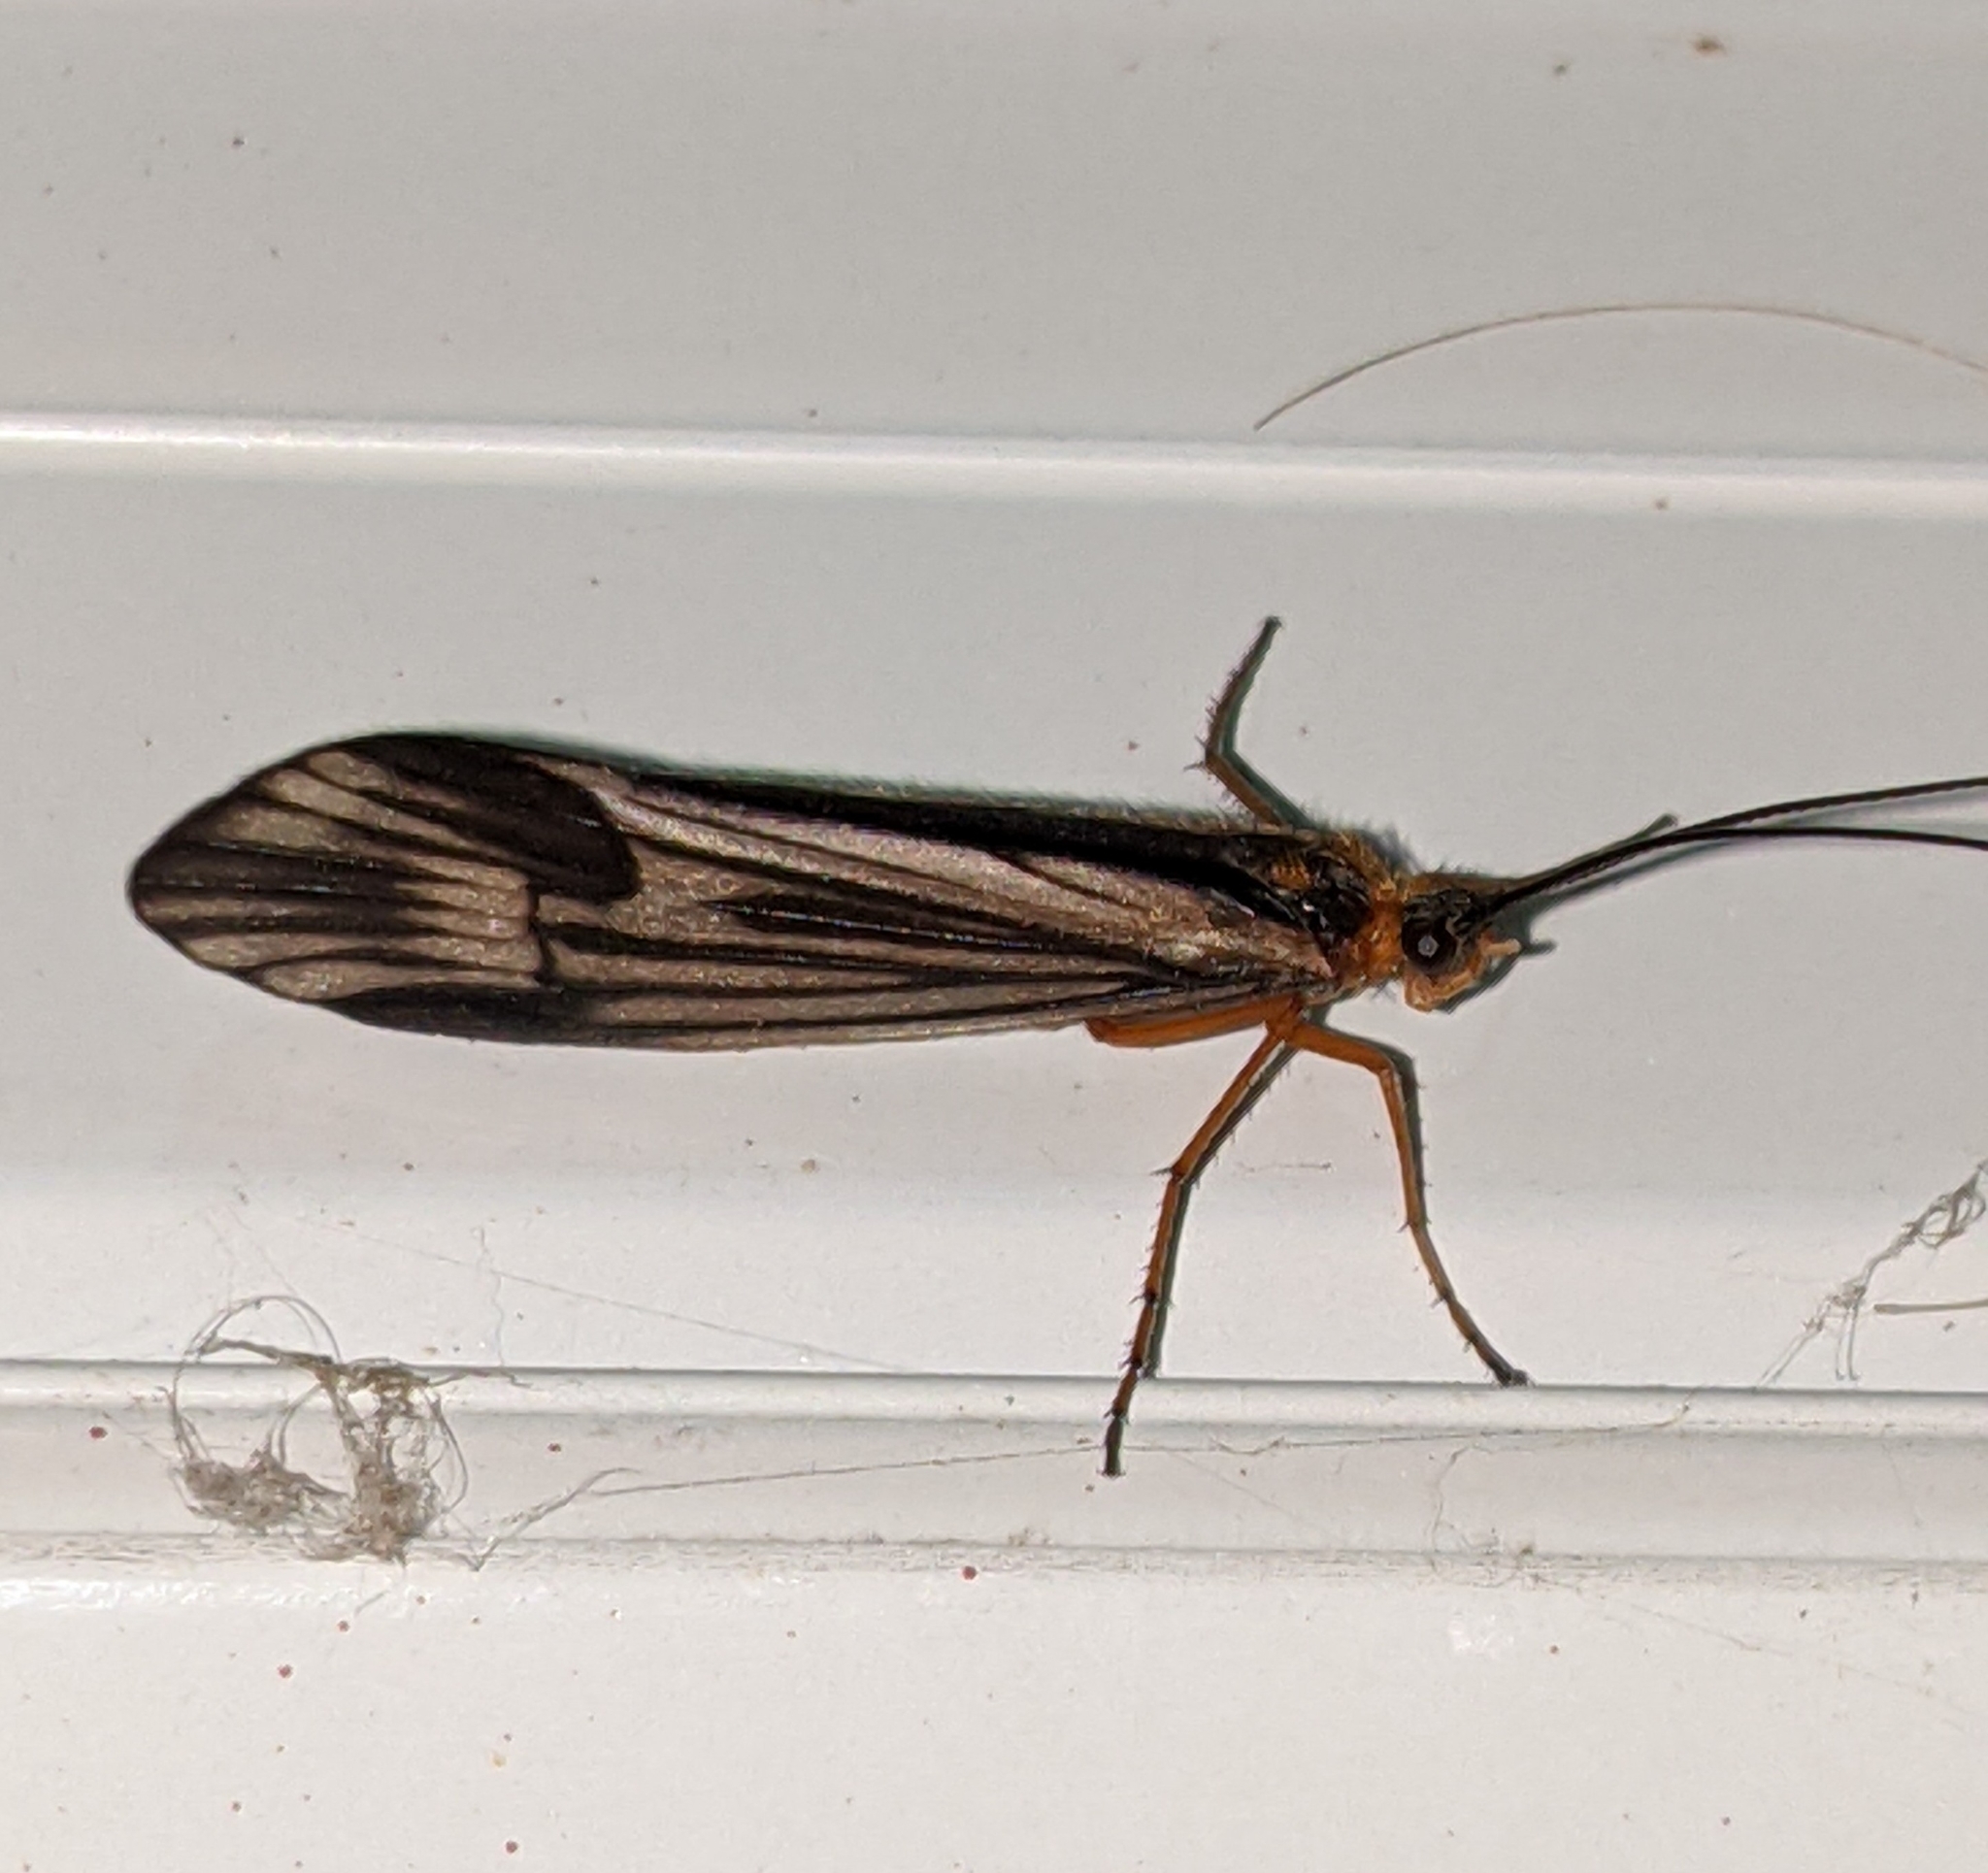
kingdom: Animalia
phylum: Arthropoda
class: Insecta
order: Trichoptera
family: Limnephilidae
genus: Halesochila
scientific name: Halesochila taylori
